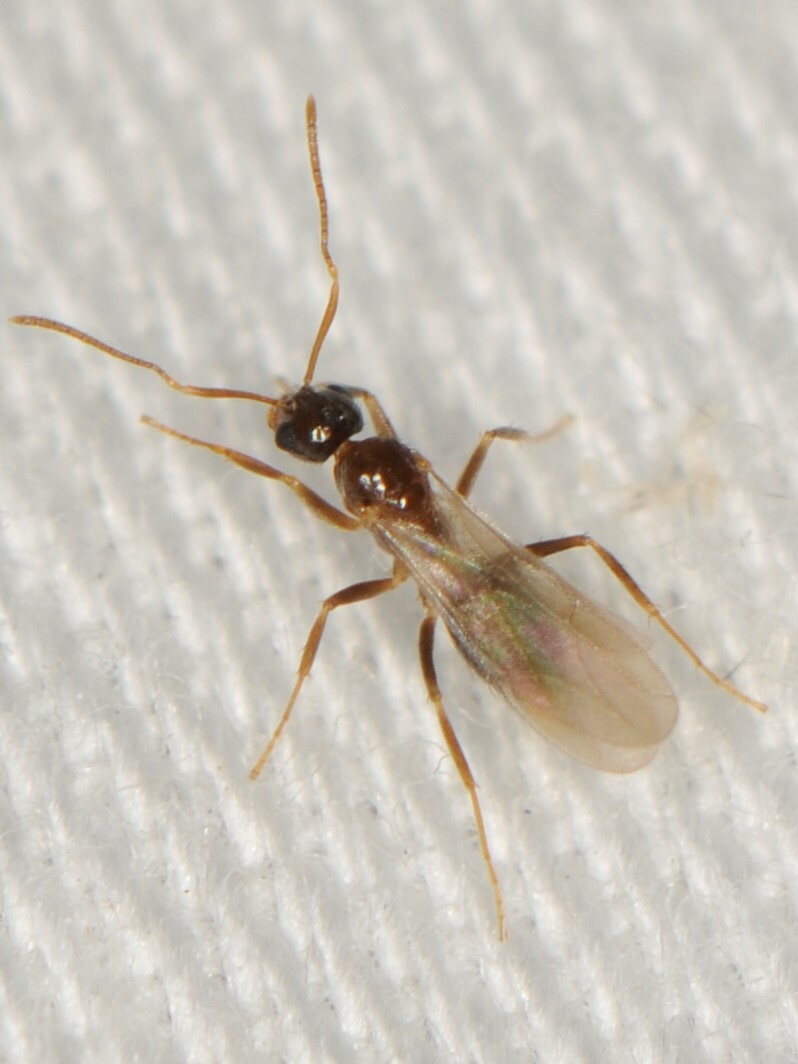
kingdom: Animalia
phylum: Arthropoda
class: Insecta
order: Hymenoptera
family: Formicidae
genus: Nylanderia
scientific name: Nylanderia
